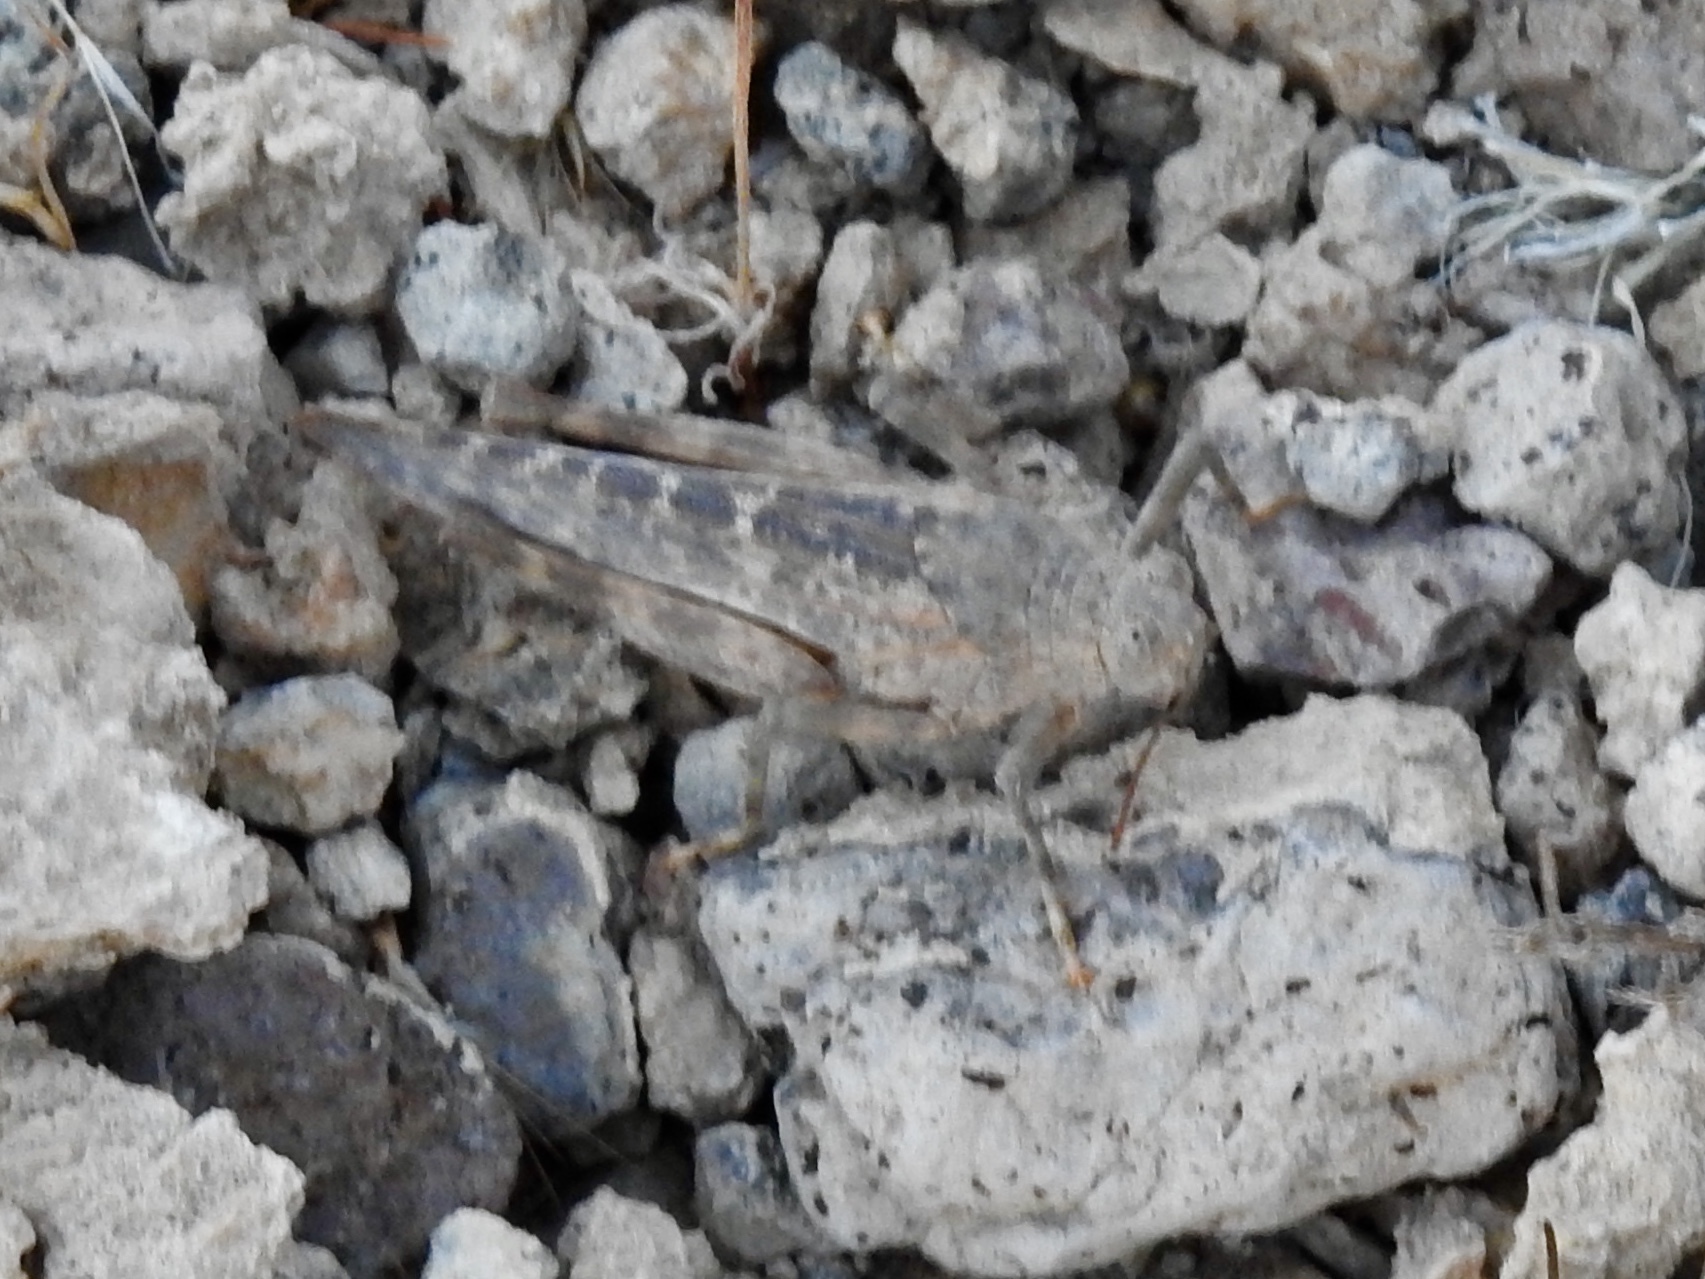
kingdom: Animalia
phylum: Arthropoda
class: Insecta
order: Orthoptera
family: Romaleidae
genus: Tytthotyle
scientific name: Tytthotyle maculata
